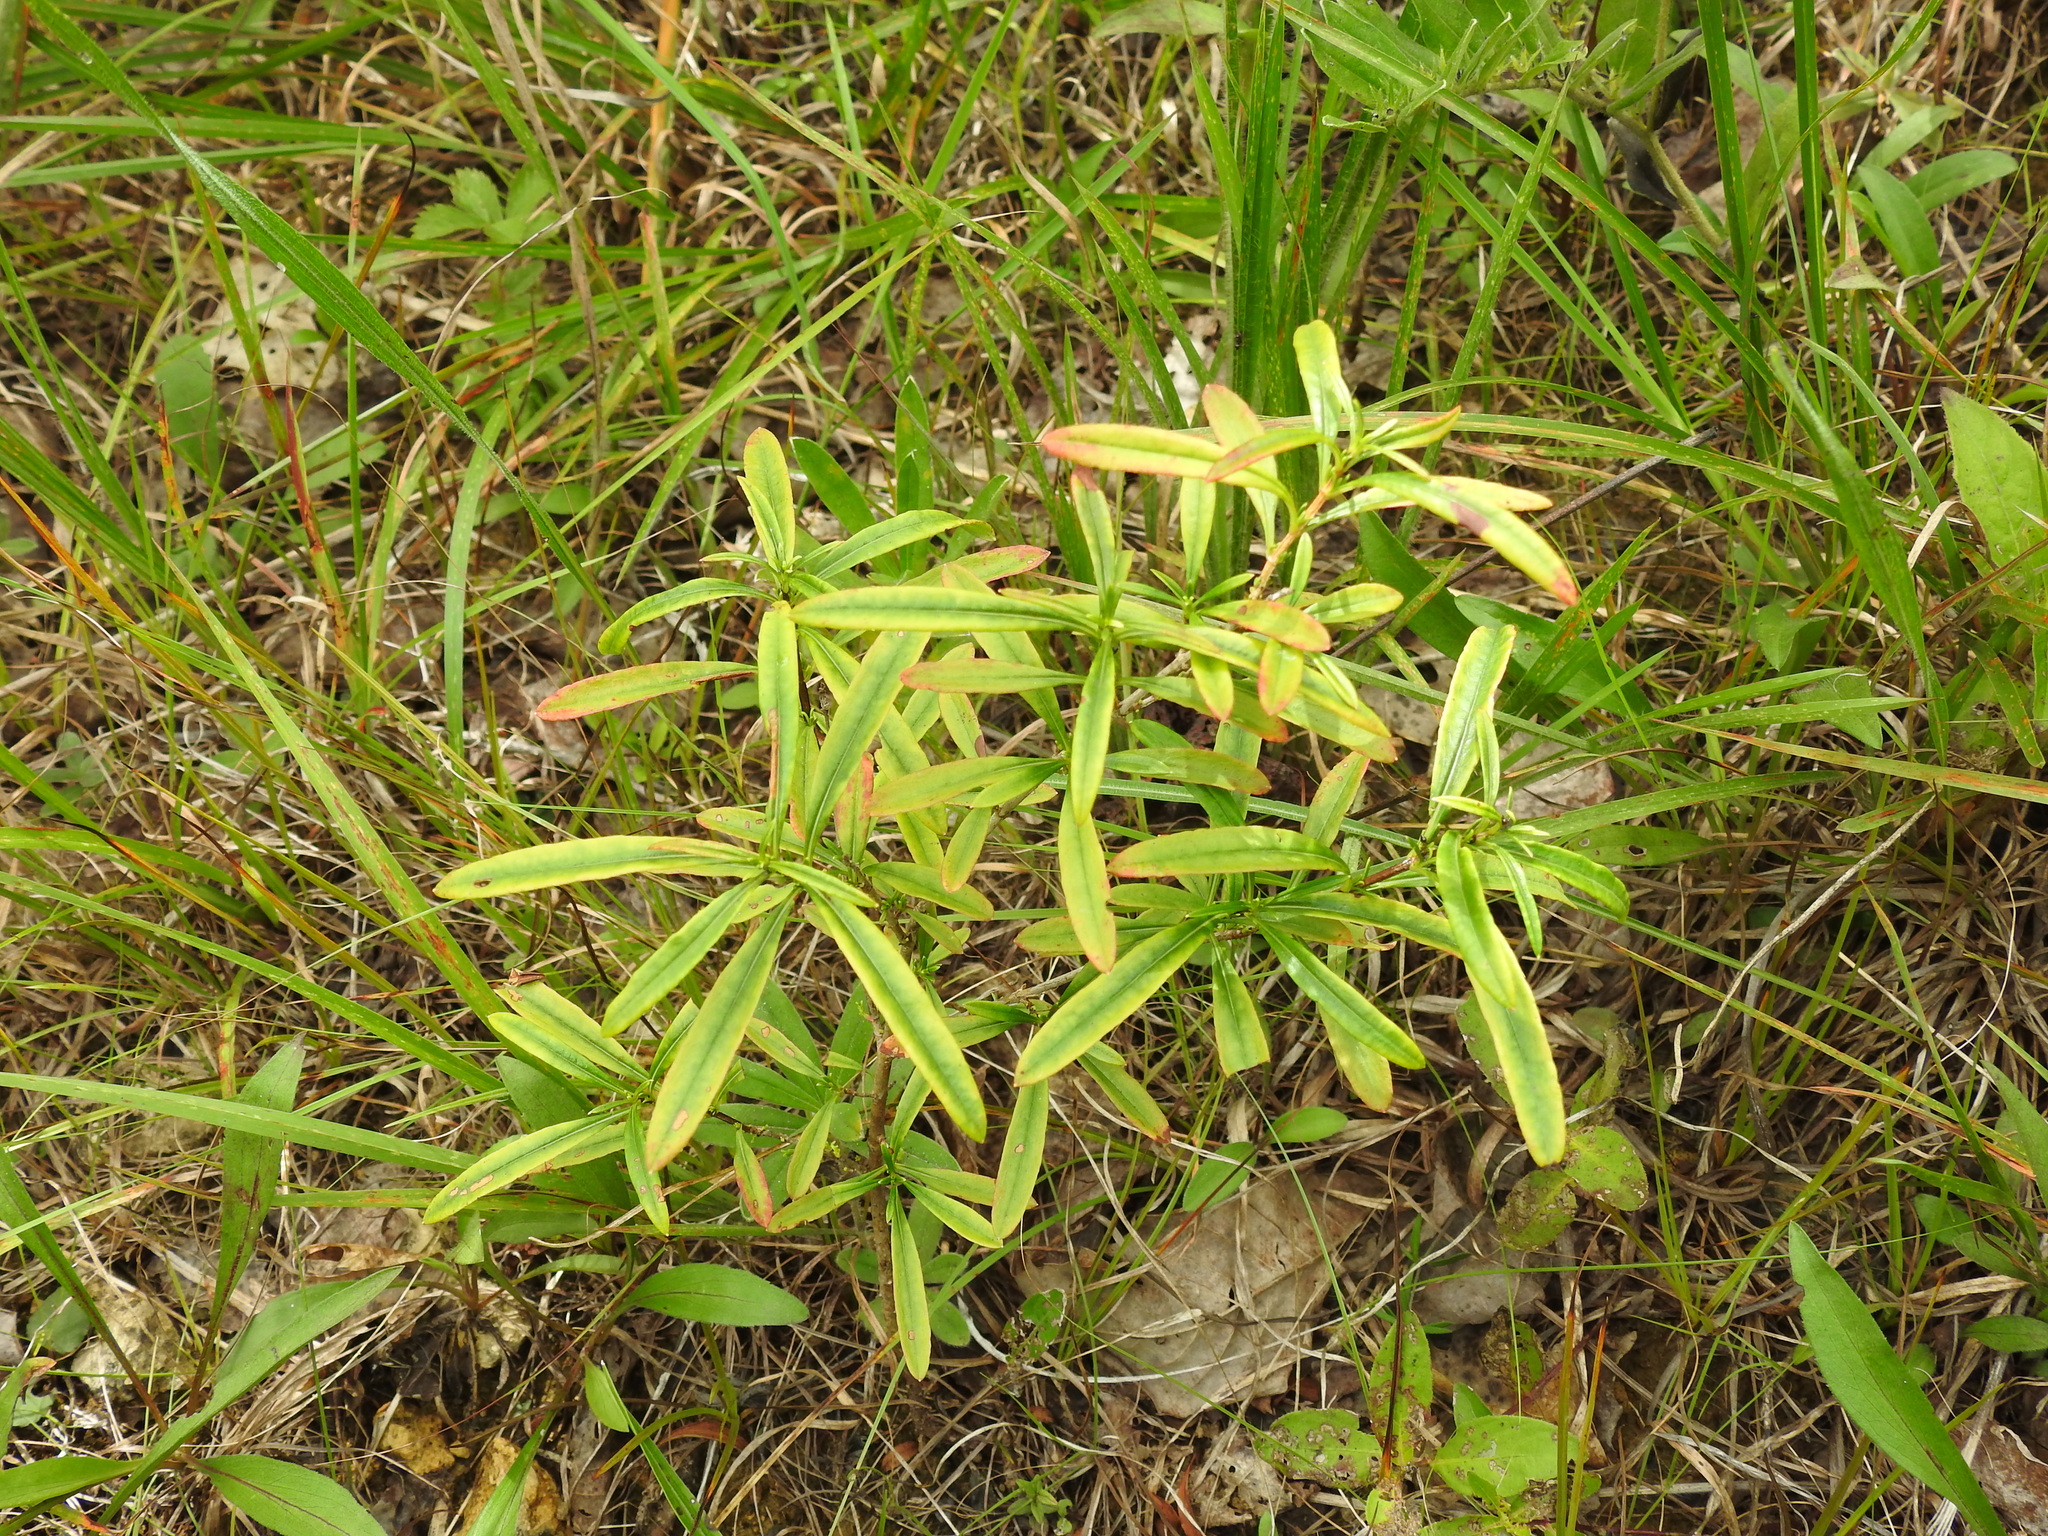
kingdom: Plantae
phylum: Tracheophyta
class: Magnoliopsida
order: Malpighiales
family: Hypericaceae
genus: Hypericum
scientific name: Hypericum prolificum
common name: Shrubby st. john's-wort
